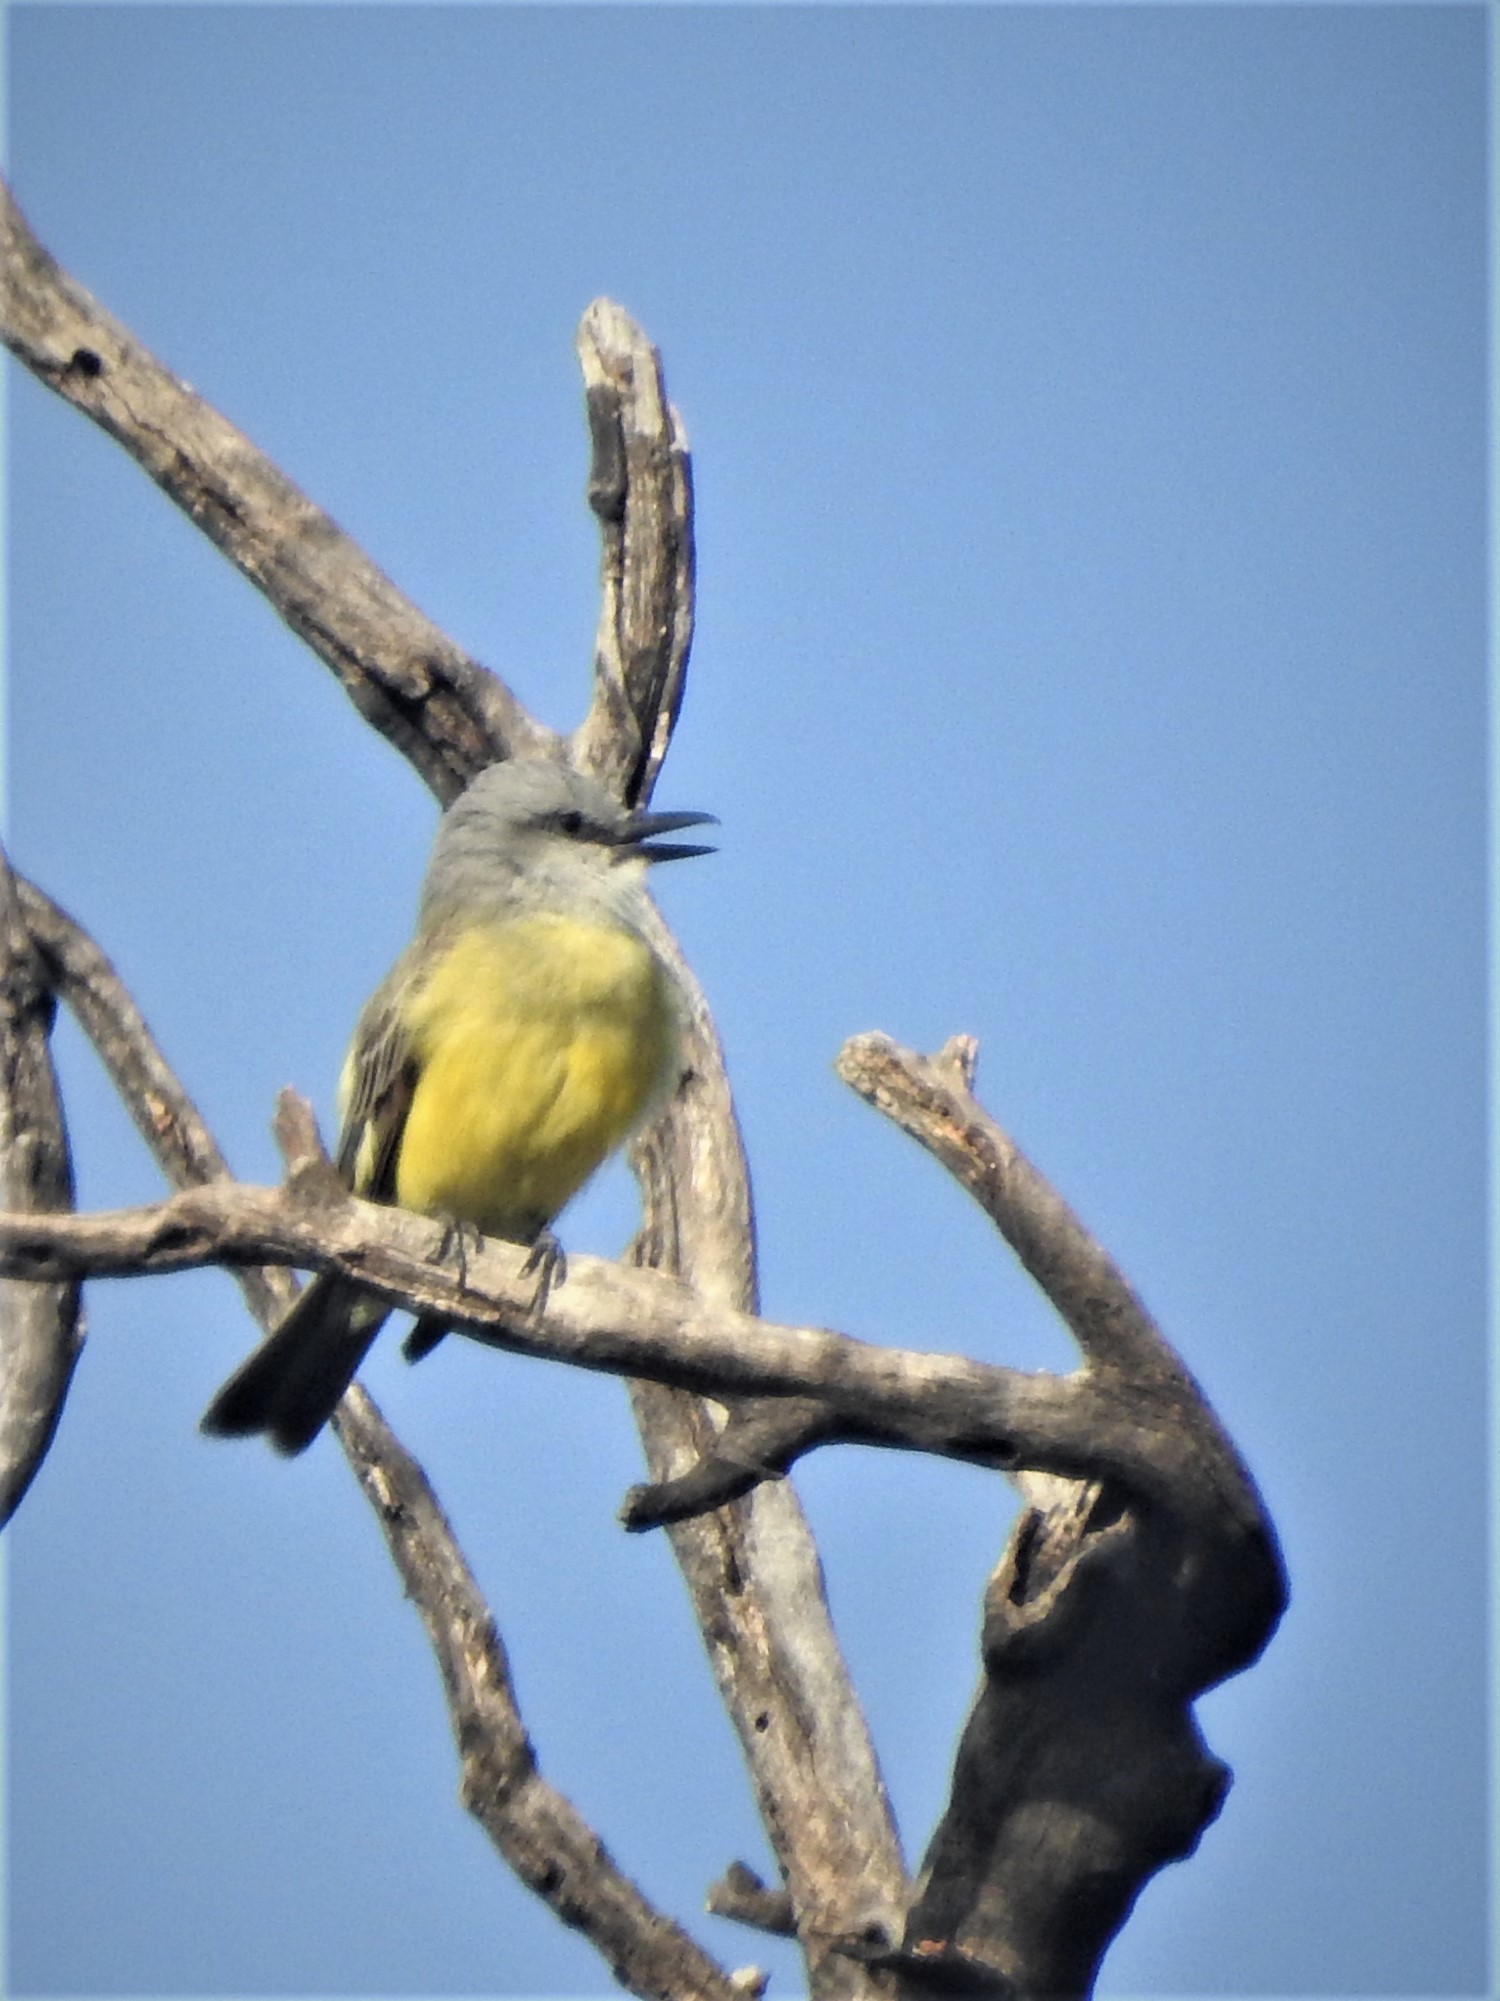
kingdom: Animalia
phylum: Chordata
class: Aves
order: Passeriformes
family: Tyrannidae
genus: Tyrannus
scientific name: Tyrannus melancholicus
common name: Tropical kingbird
